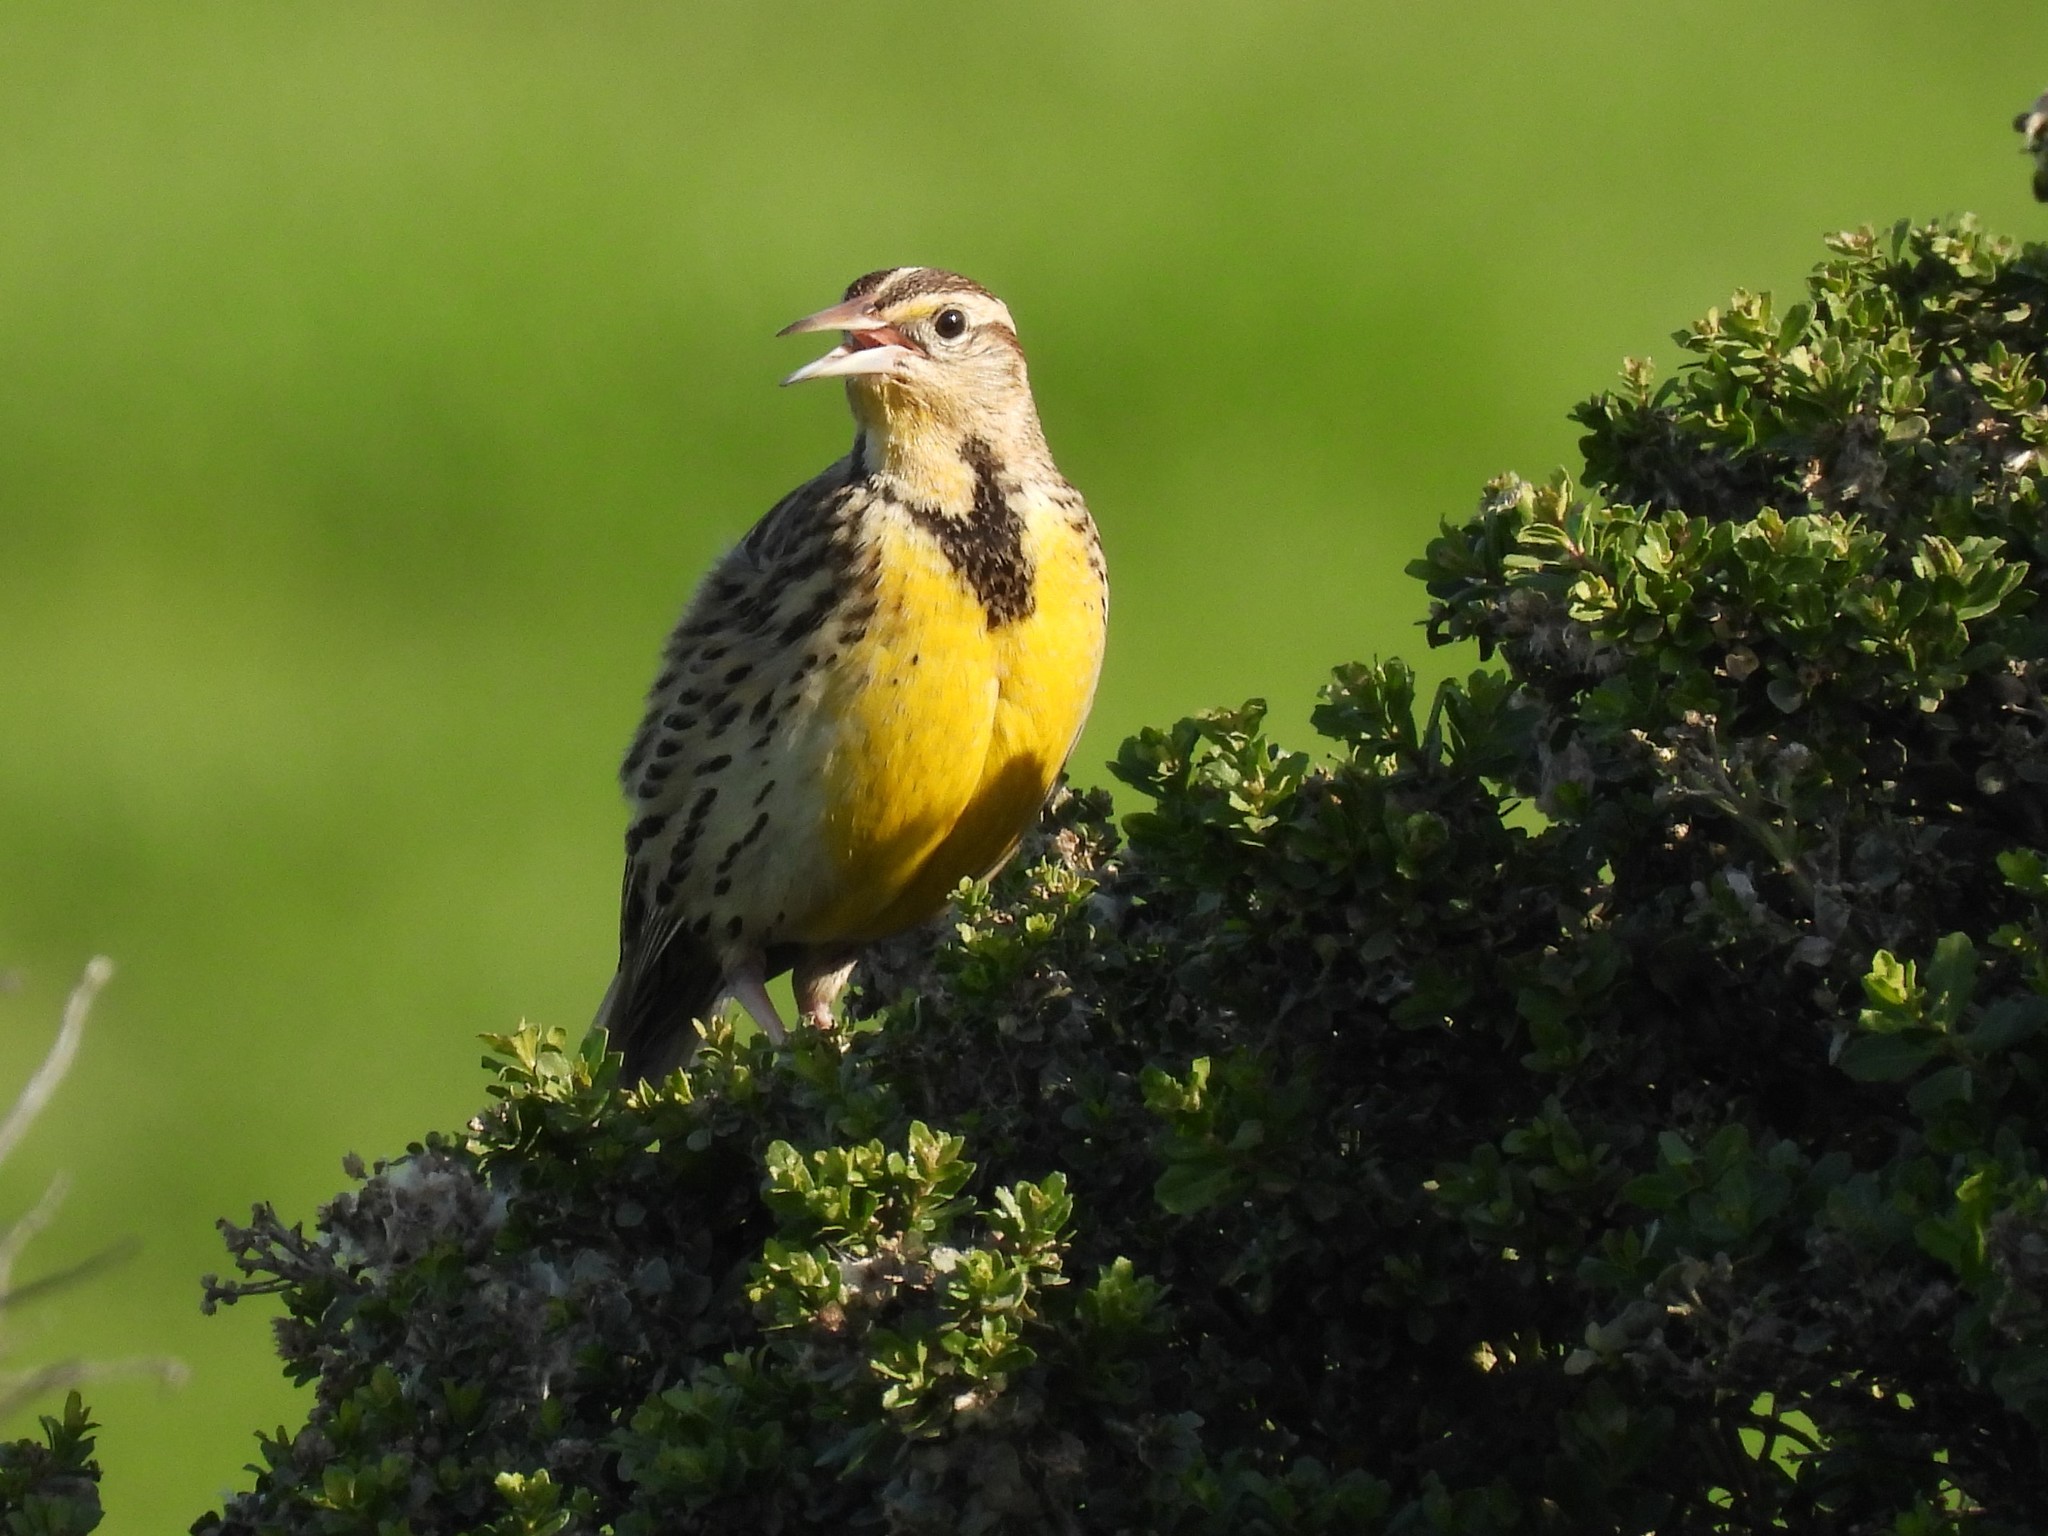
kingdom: Animalia
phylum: Chordata
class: Aves
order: Passeriformes
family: Icteridae
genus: Sturnella
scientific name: Sturnella neglecta
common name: Western meadowlark
